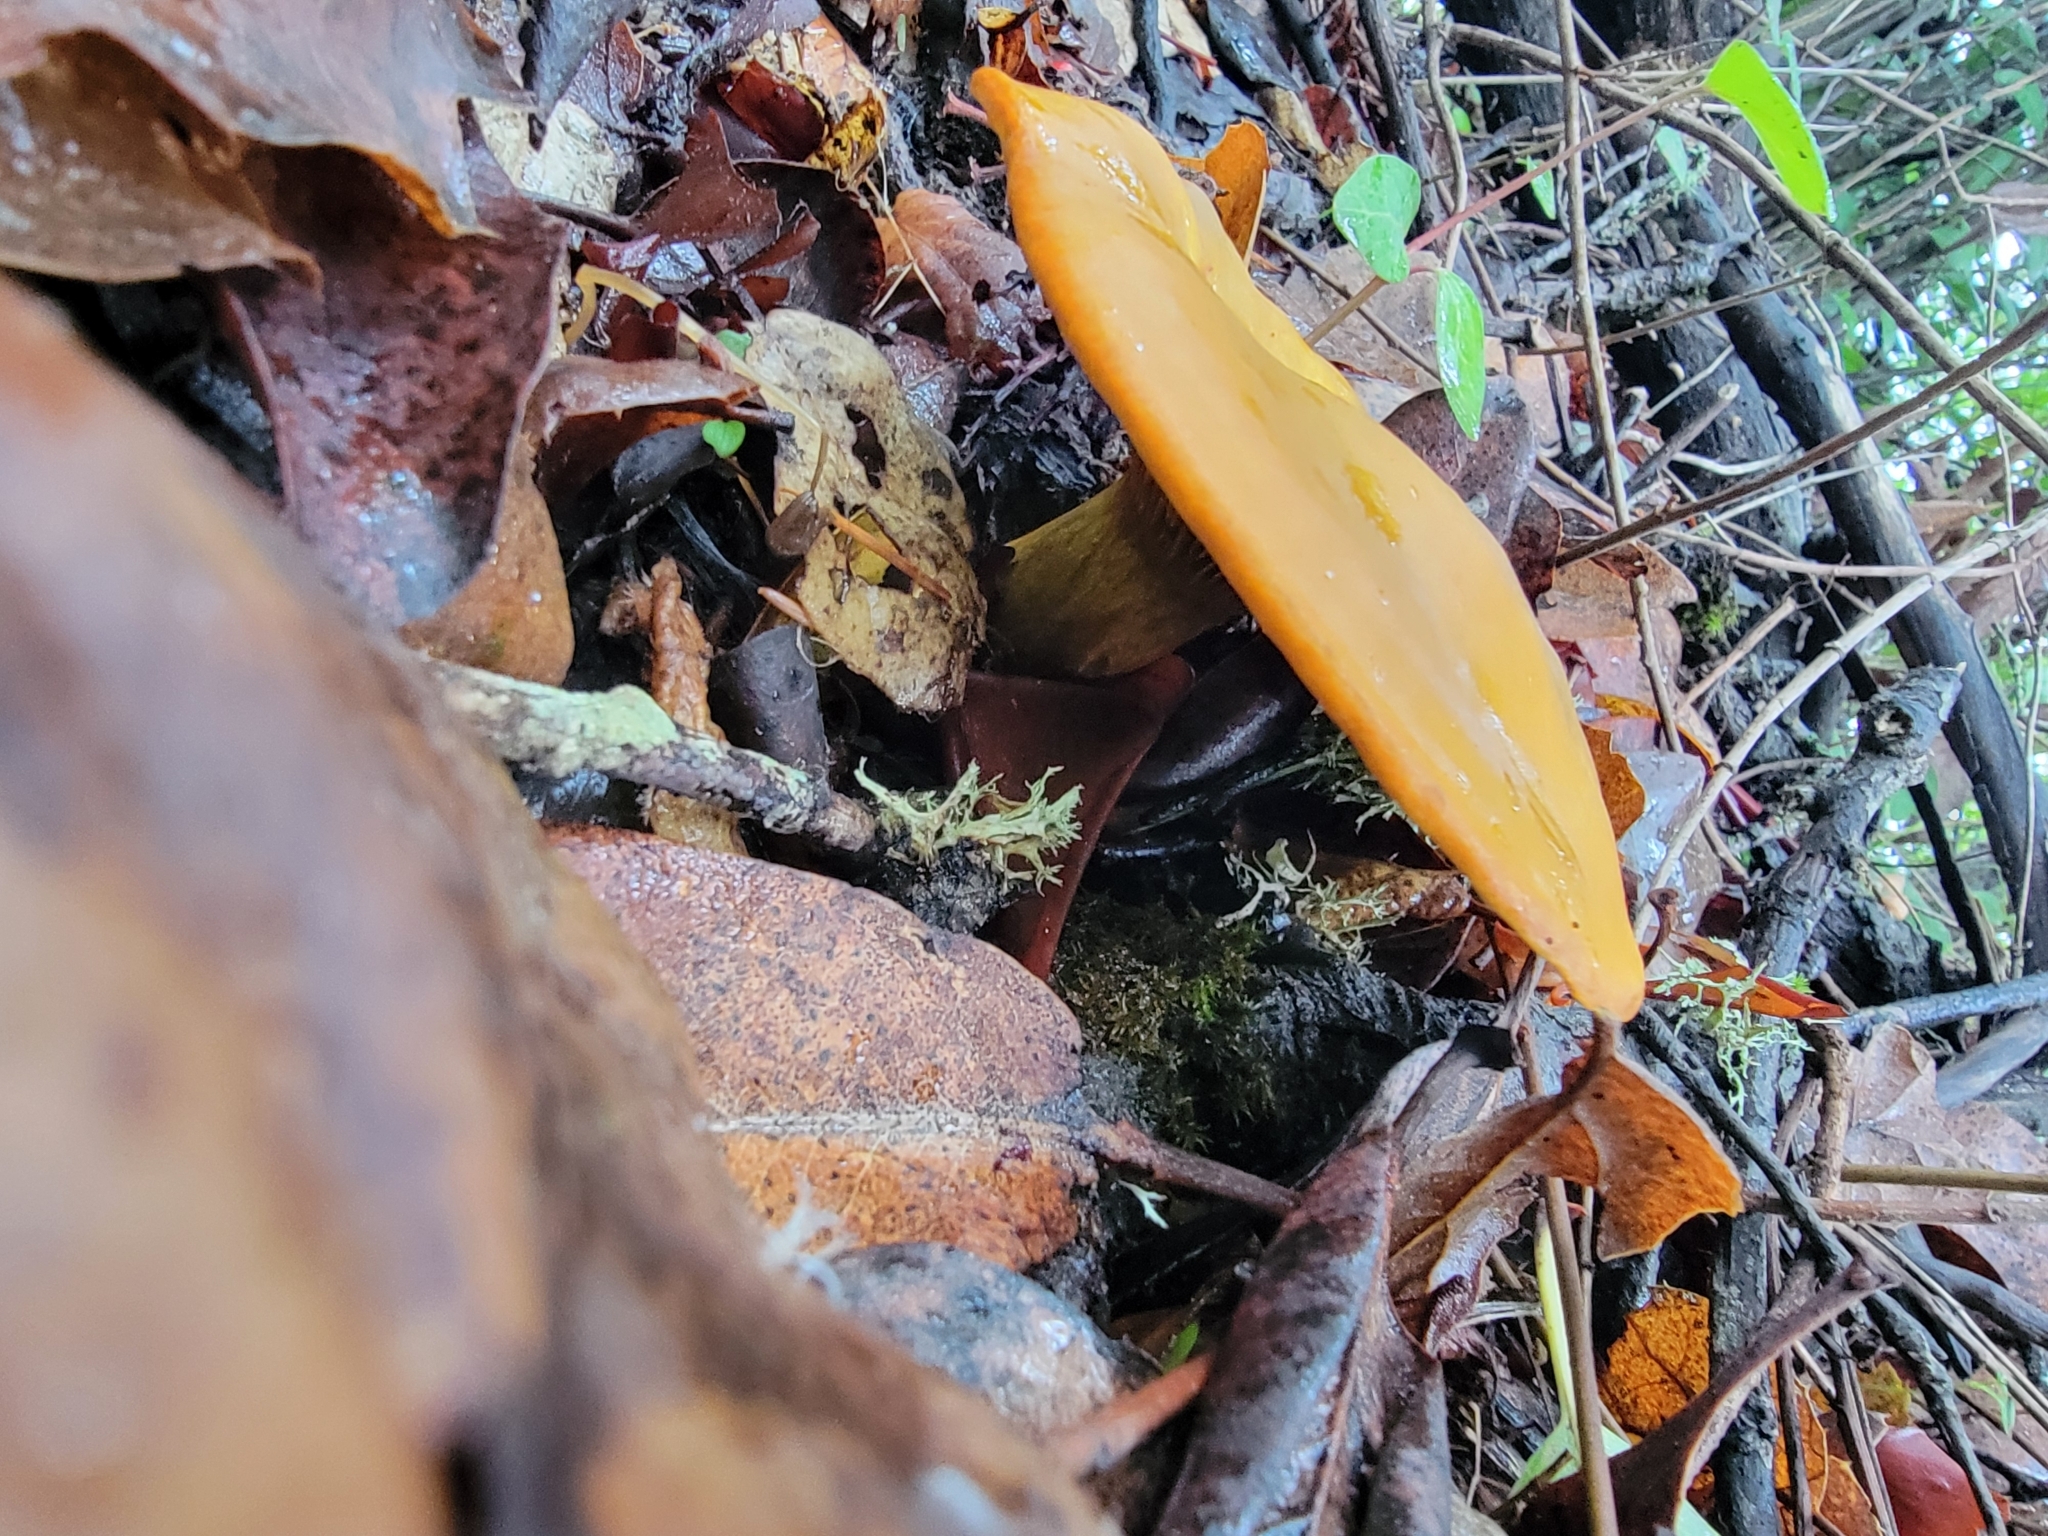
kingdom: Fungi
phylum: Basidiomycota
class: Agaricomycetes
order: Agaricales
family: Omphalotaceae
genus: Omphalotus
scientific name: Omphalotus olivascens
